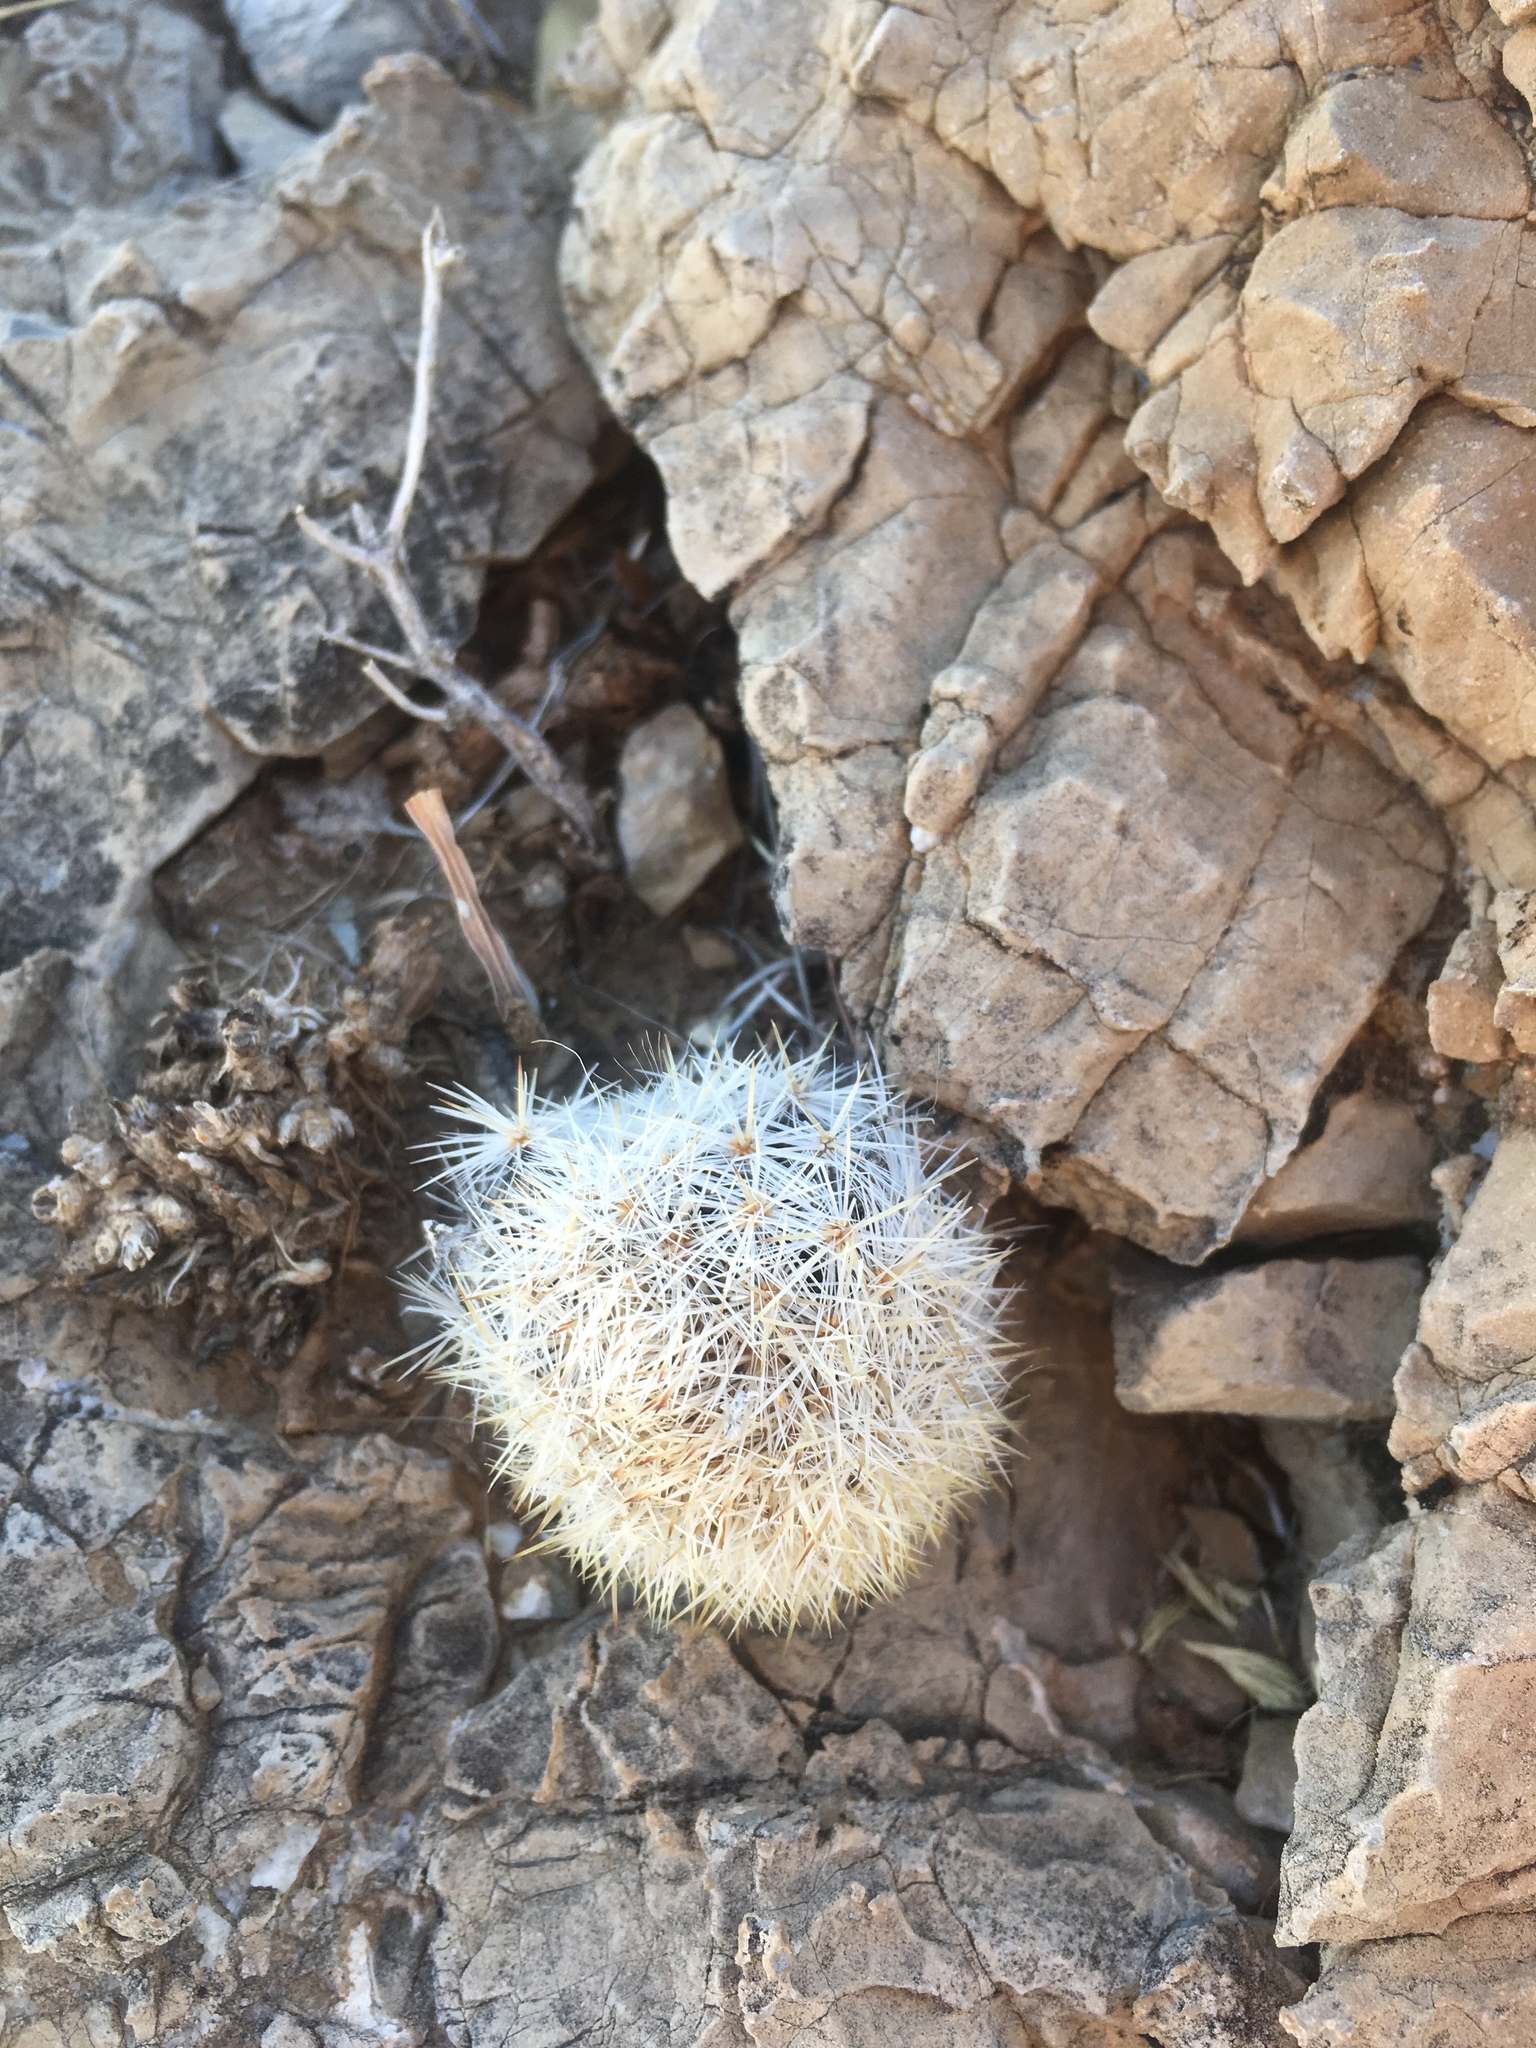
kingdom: Plantae
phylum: Tracheophyta
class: Magnoliopsida
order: Caryophyllales
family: Cactaceae
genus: Pelecyphora
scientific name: Pelecyphora sneedii
